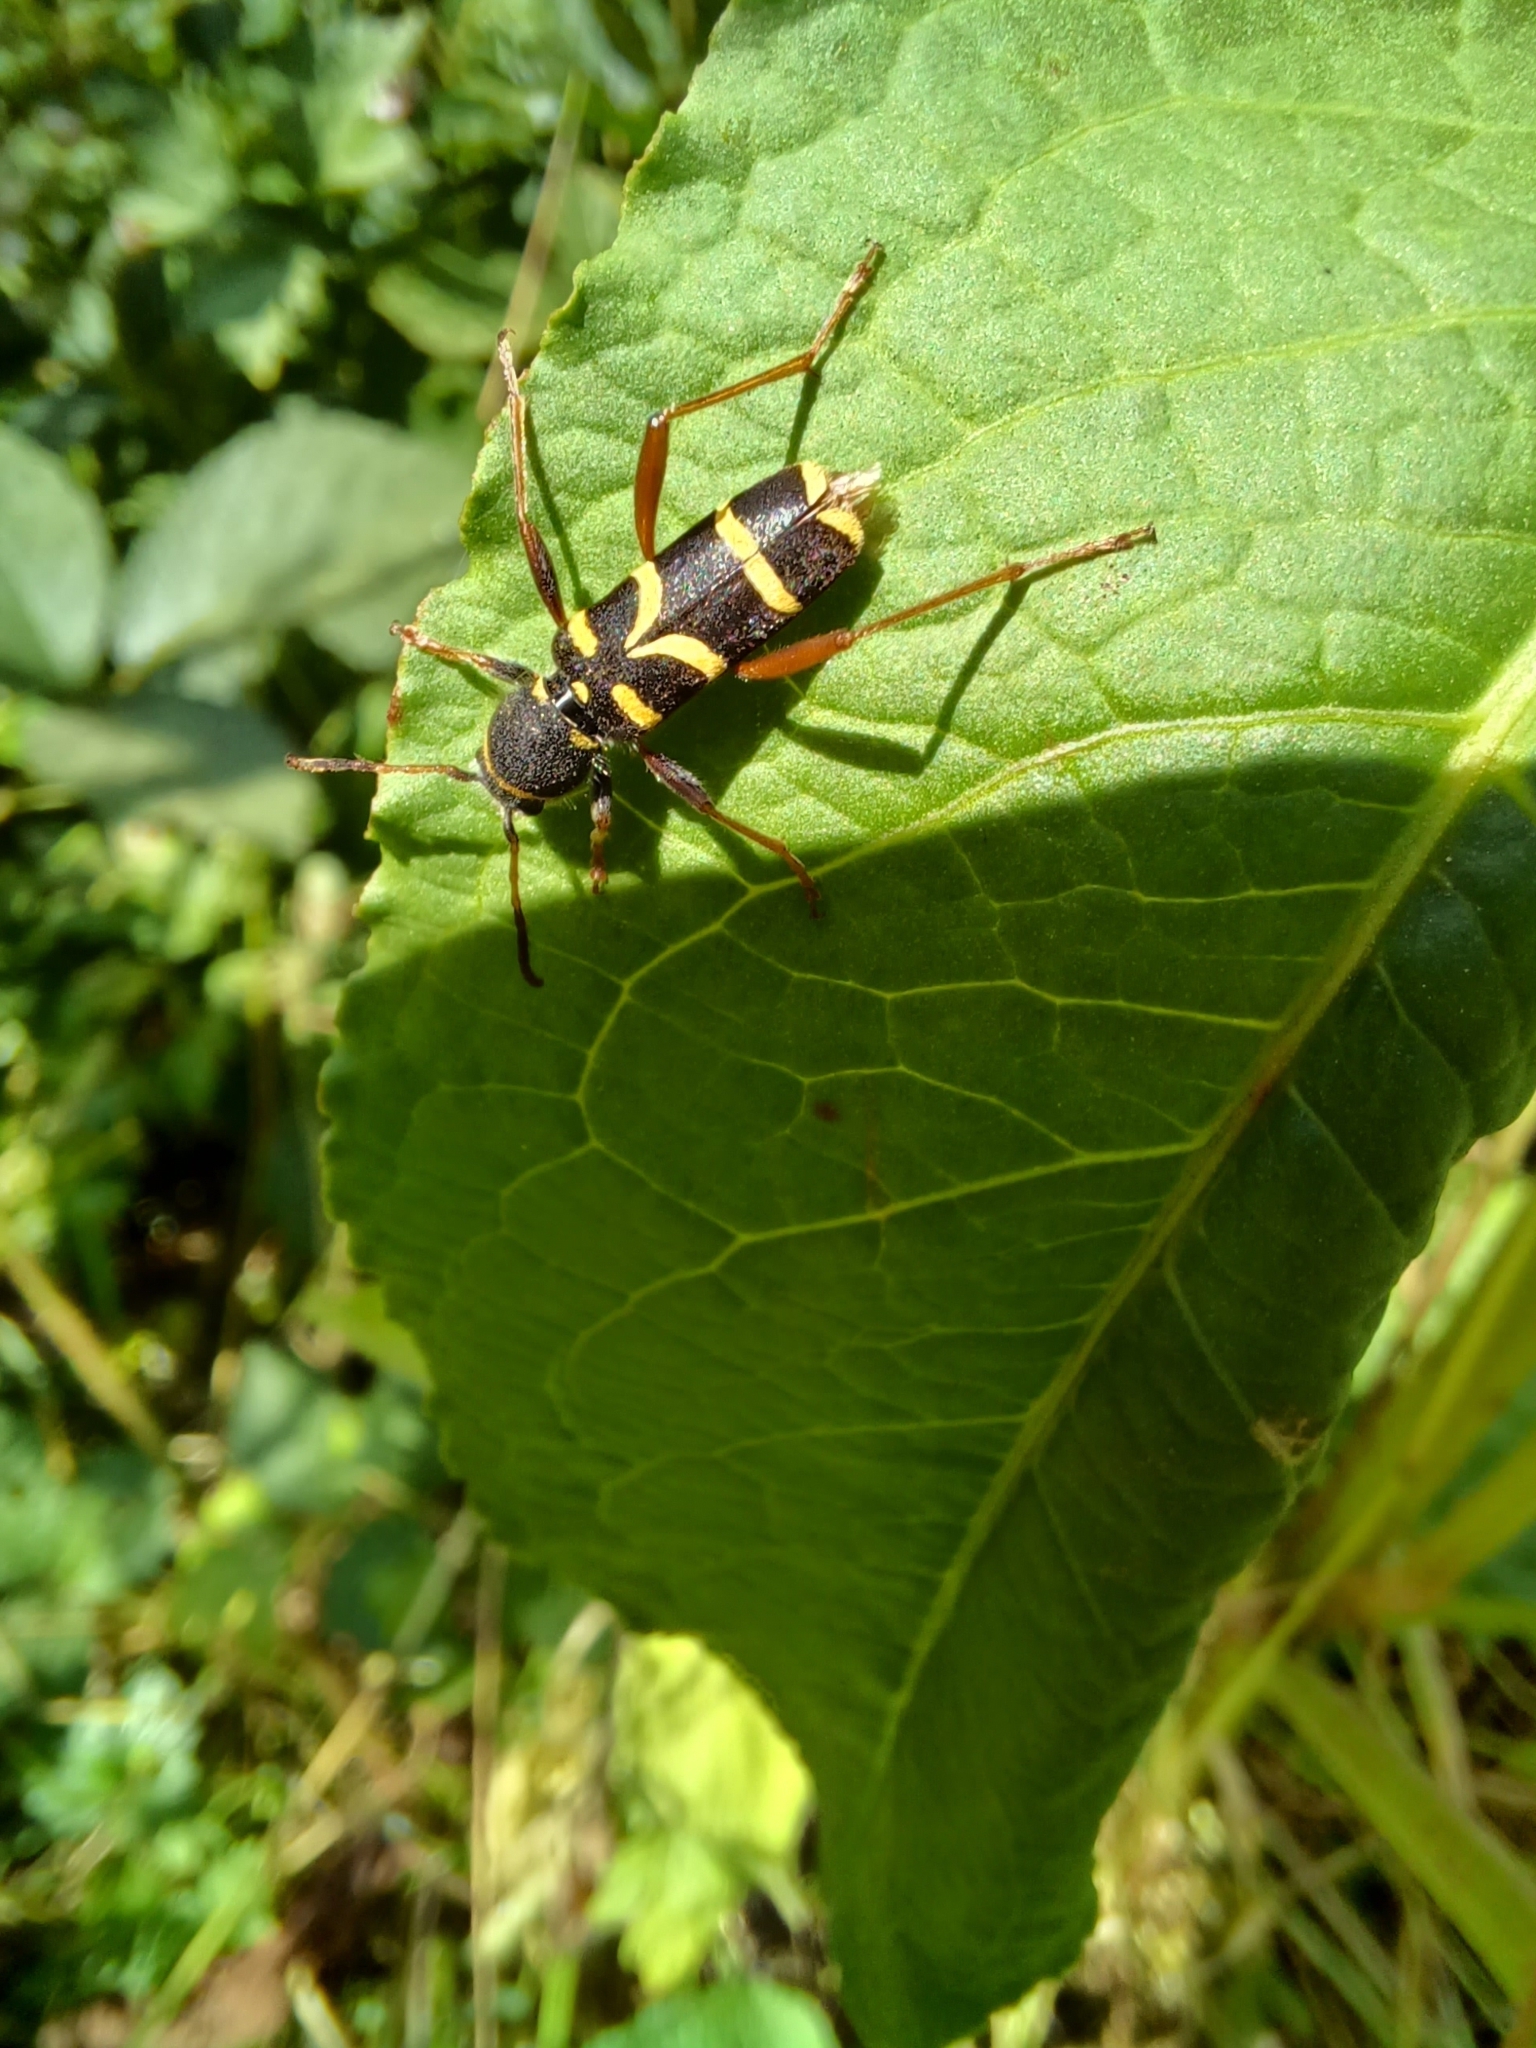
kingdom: Animalia
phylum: Arthropoda
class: Insecta
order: Coleoptera
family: Cerambycidae
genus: Clytus
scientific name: Clytus arietis
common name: Wasp beetle
